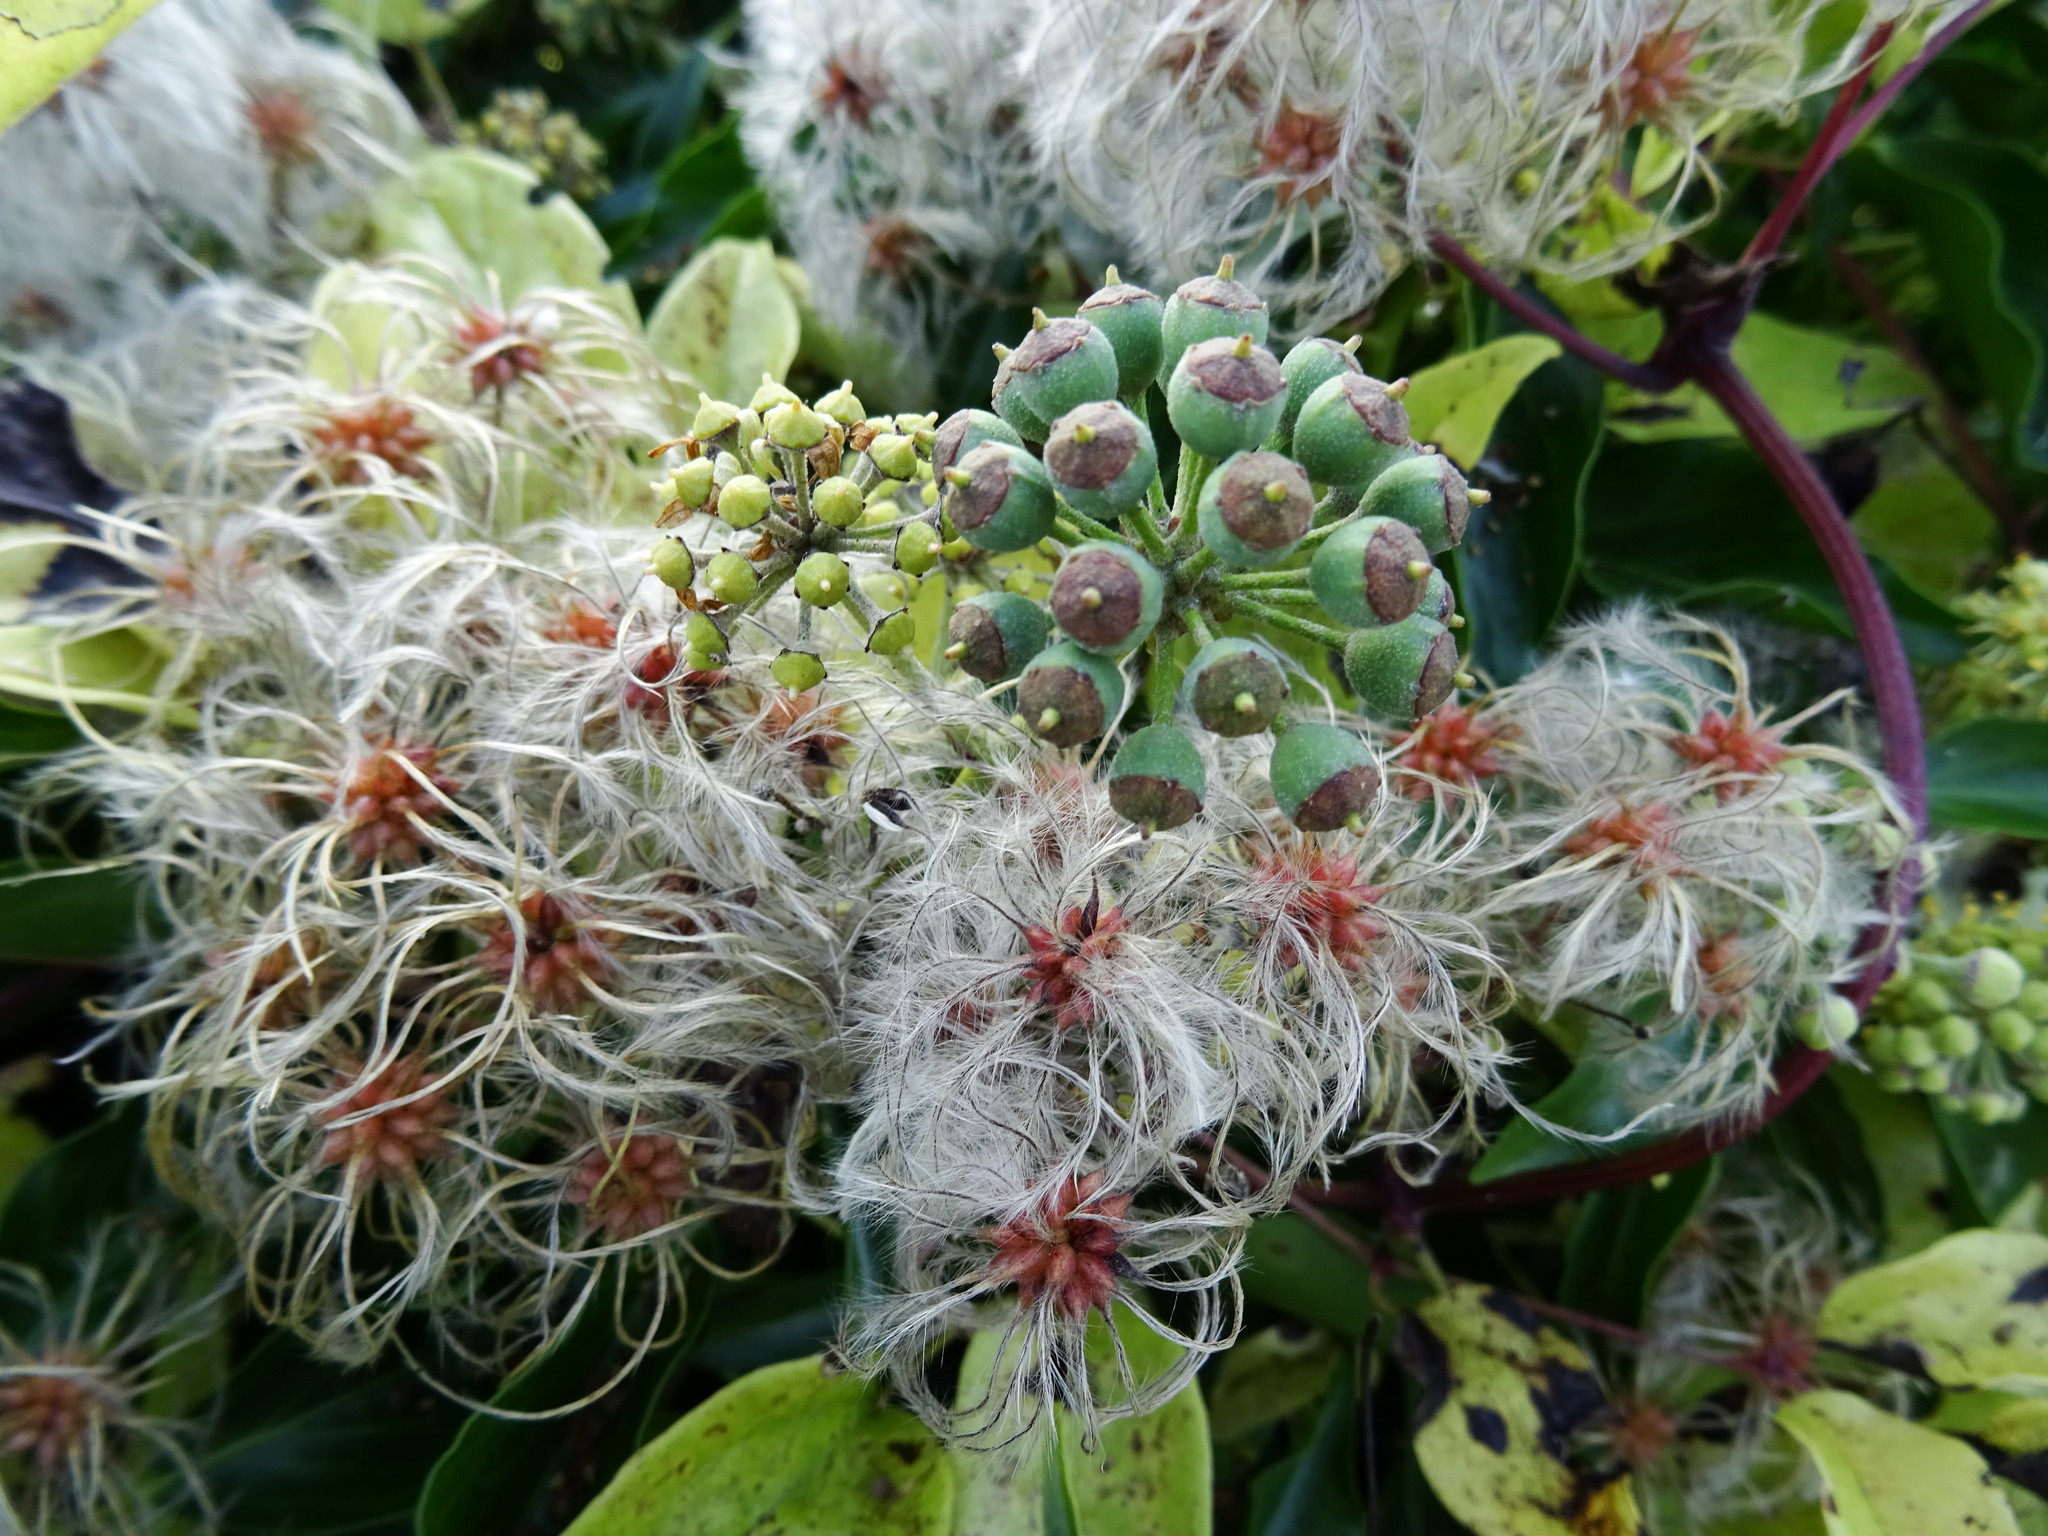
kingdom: Plantae
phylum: Tracheophyta
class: Magnoliopsida
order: Ranunculales
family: Ranunculaceae
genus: Clematis
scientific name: Clematis vitalba
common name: Evergreen clematis
